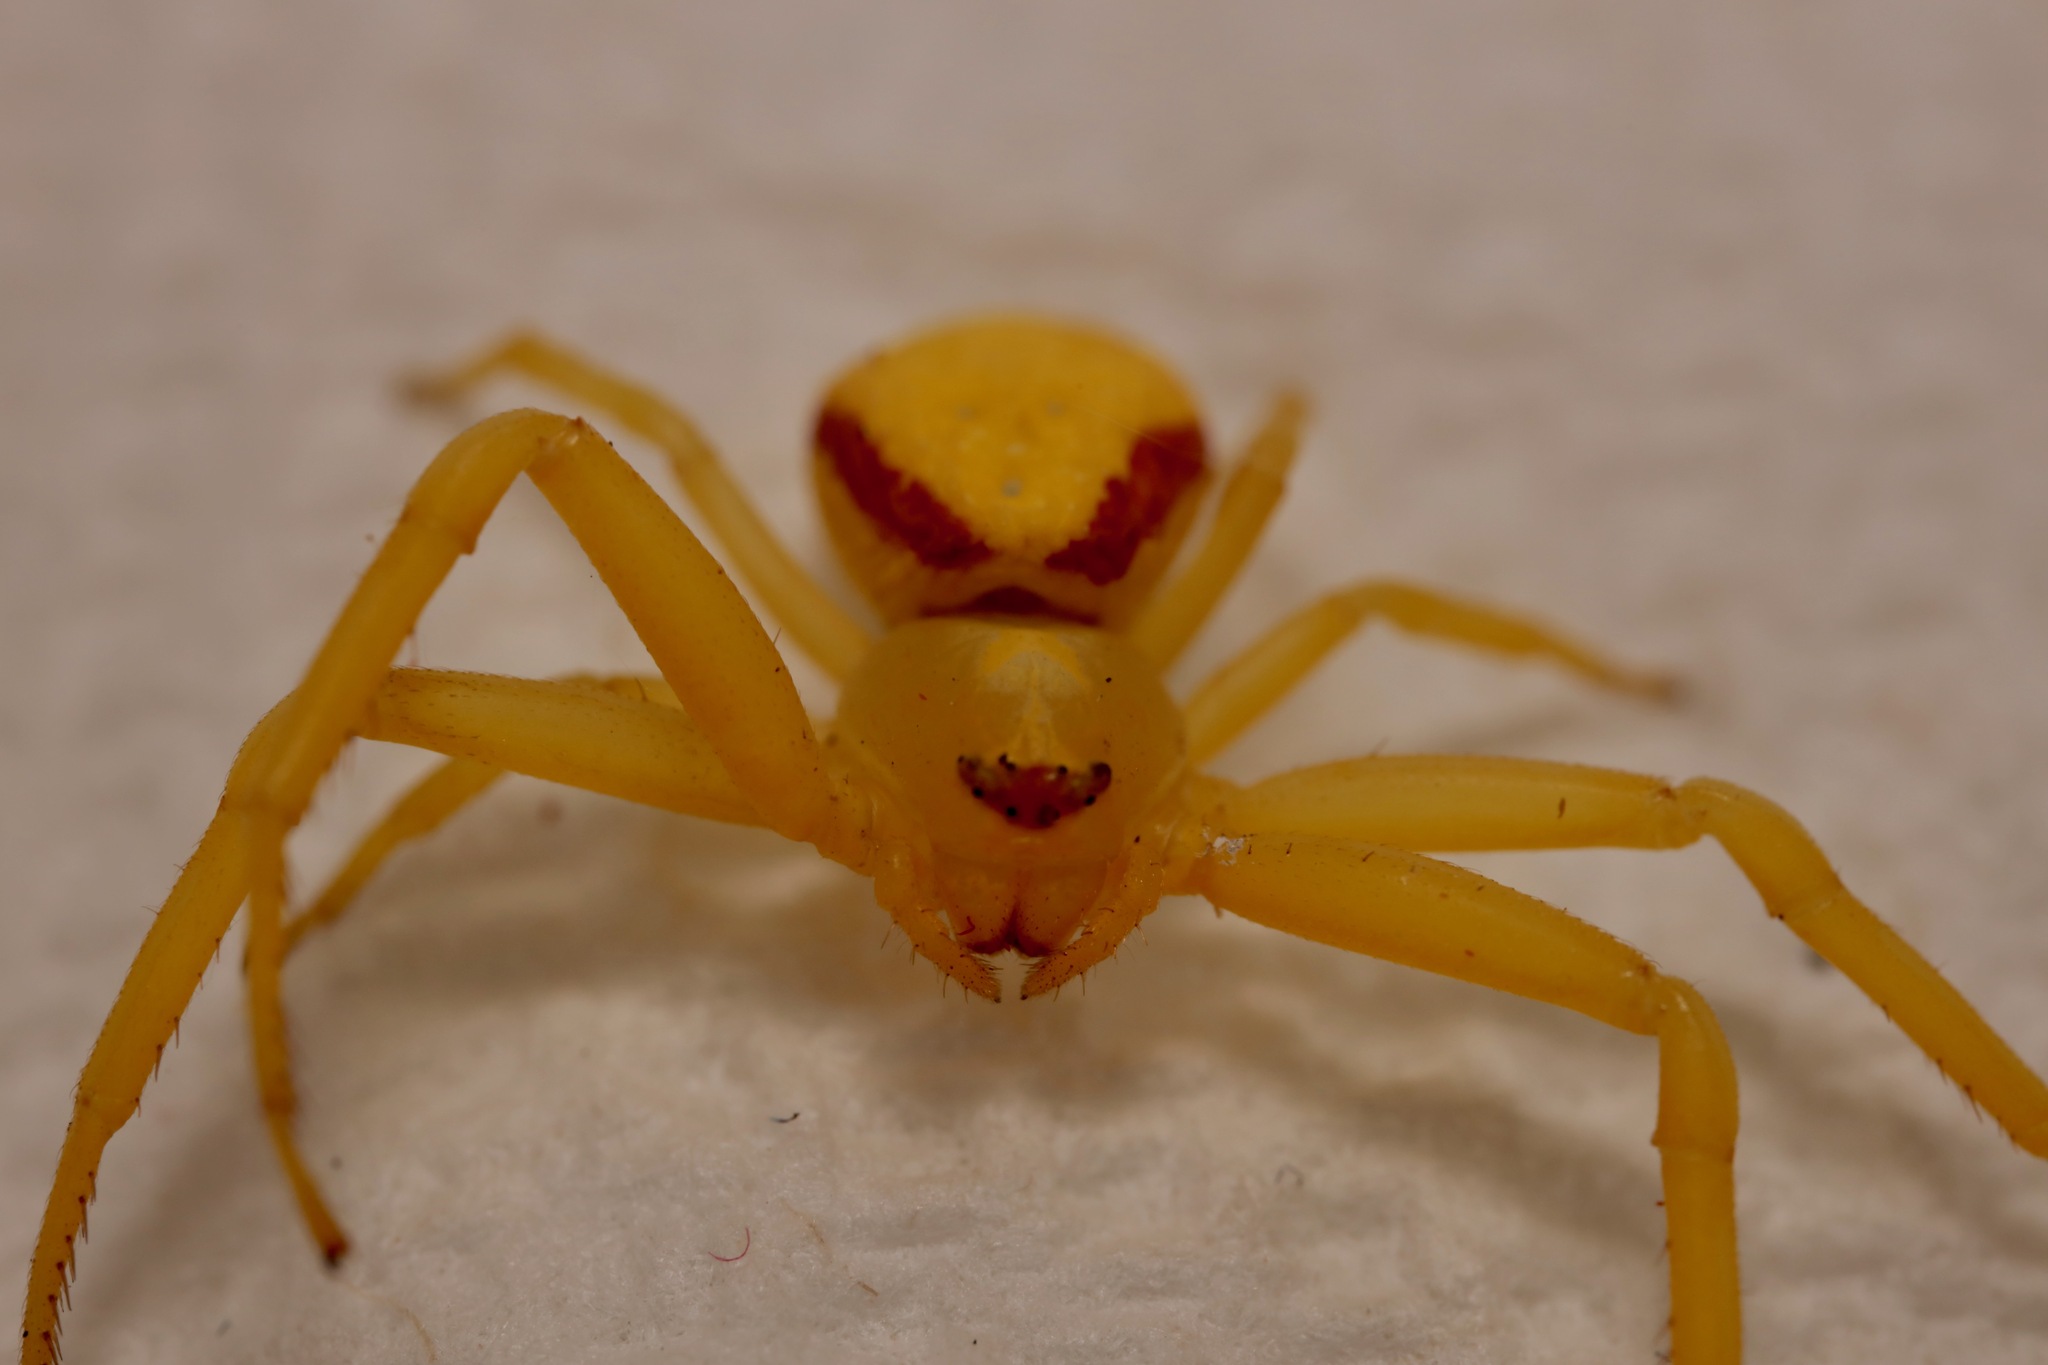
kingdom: Animalia
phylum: Arthropoda
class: Arachnida
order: Araneae
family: Thomisidae
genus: Misumena
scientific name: Misumena vatia
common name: Goldenrod crab spider
